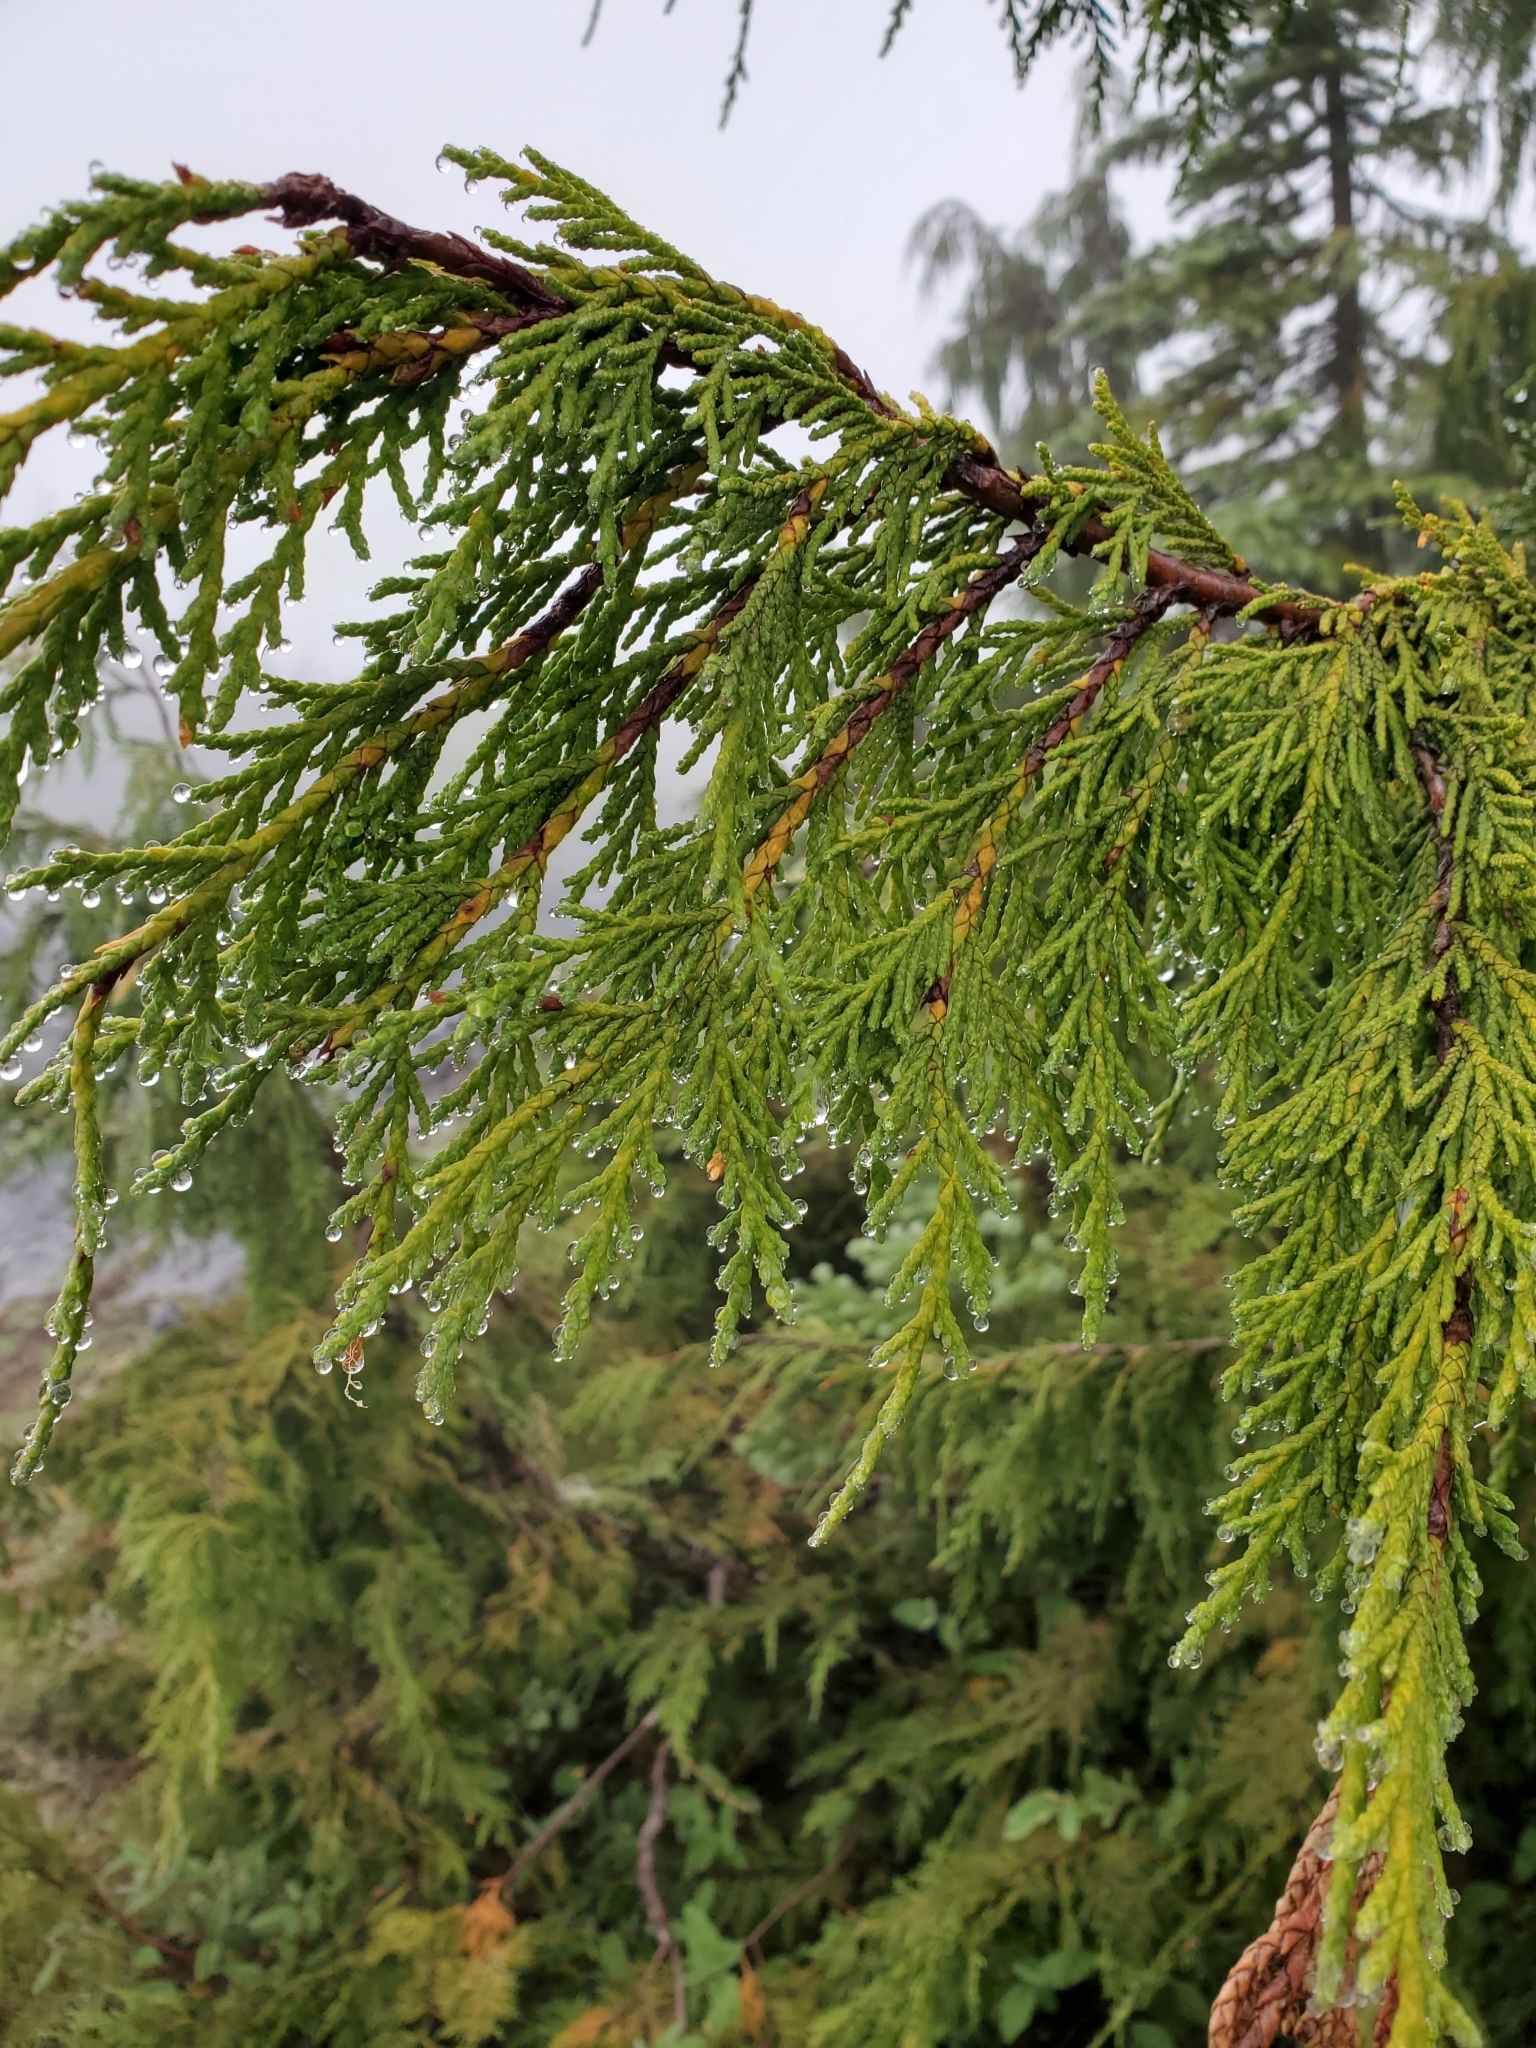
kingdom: Plantae
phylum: Tracheophyta
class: Pinopsida
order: Pinales
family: Cupressaceae
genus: Xanthocyparis
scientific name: Xanthocyparis nootkatensis
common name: Nootka cypress
